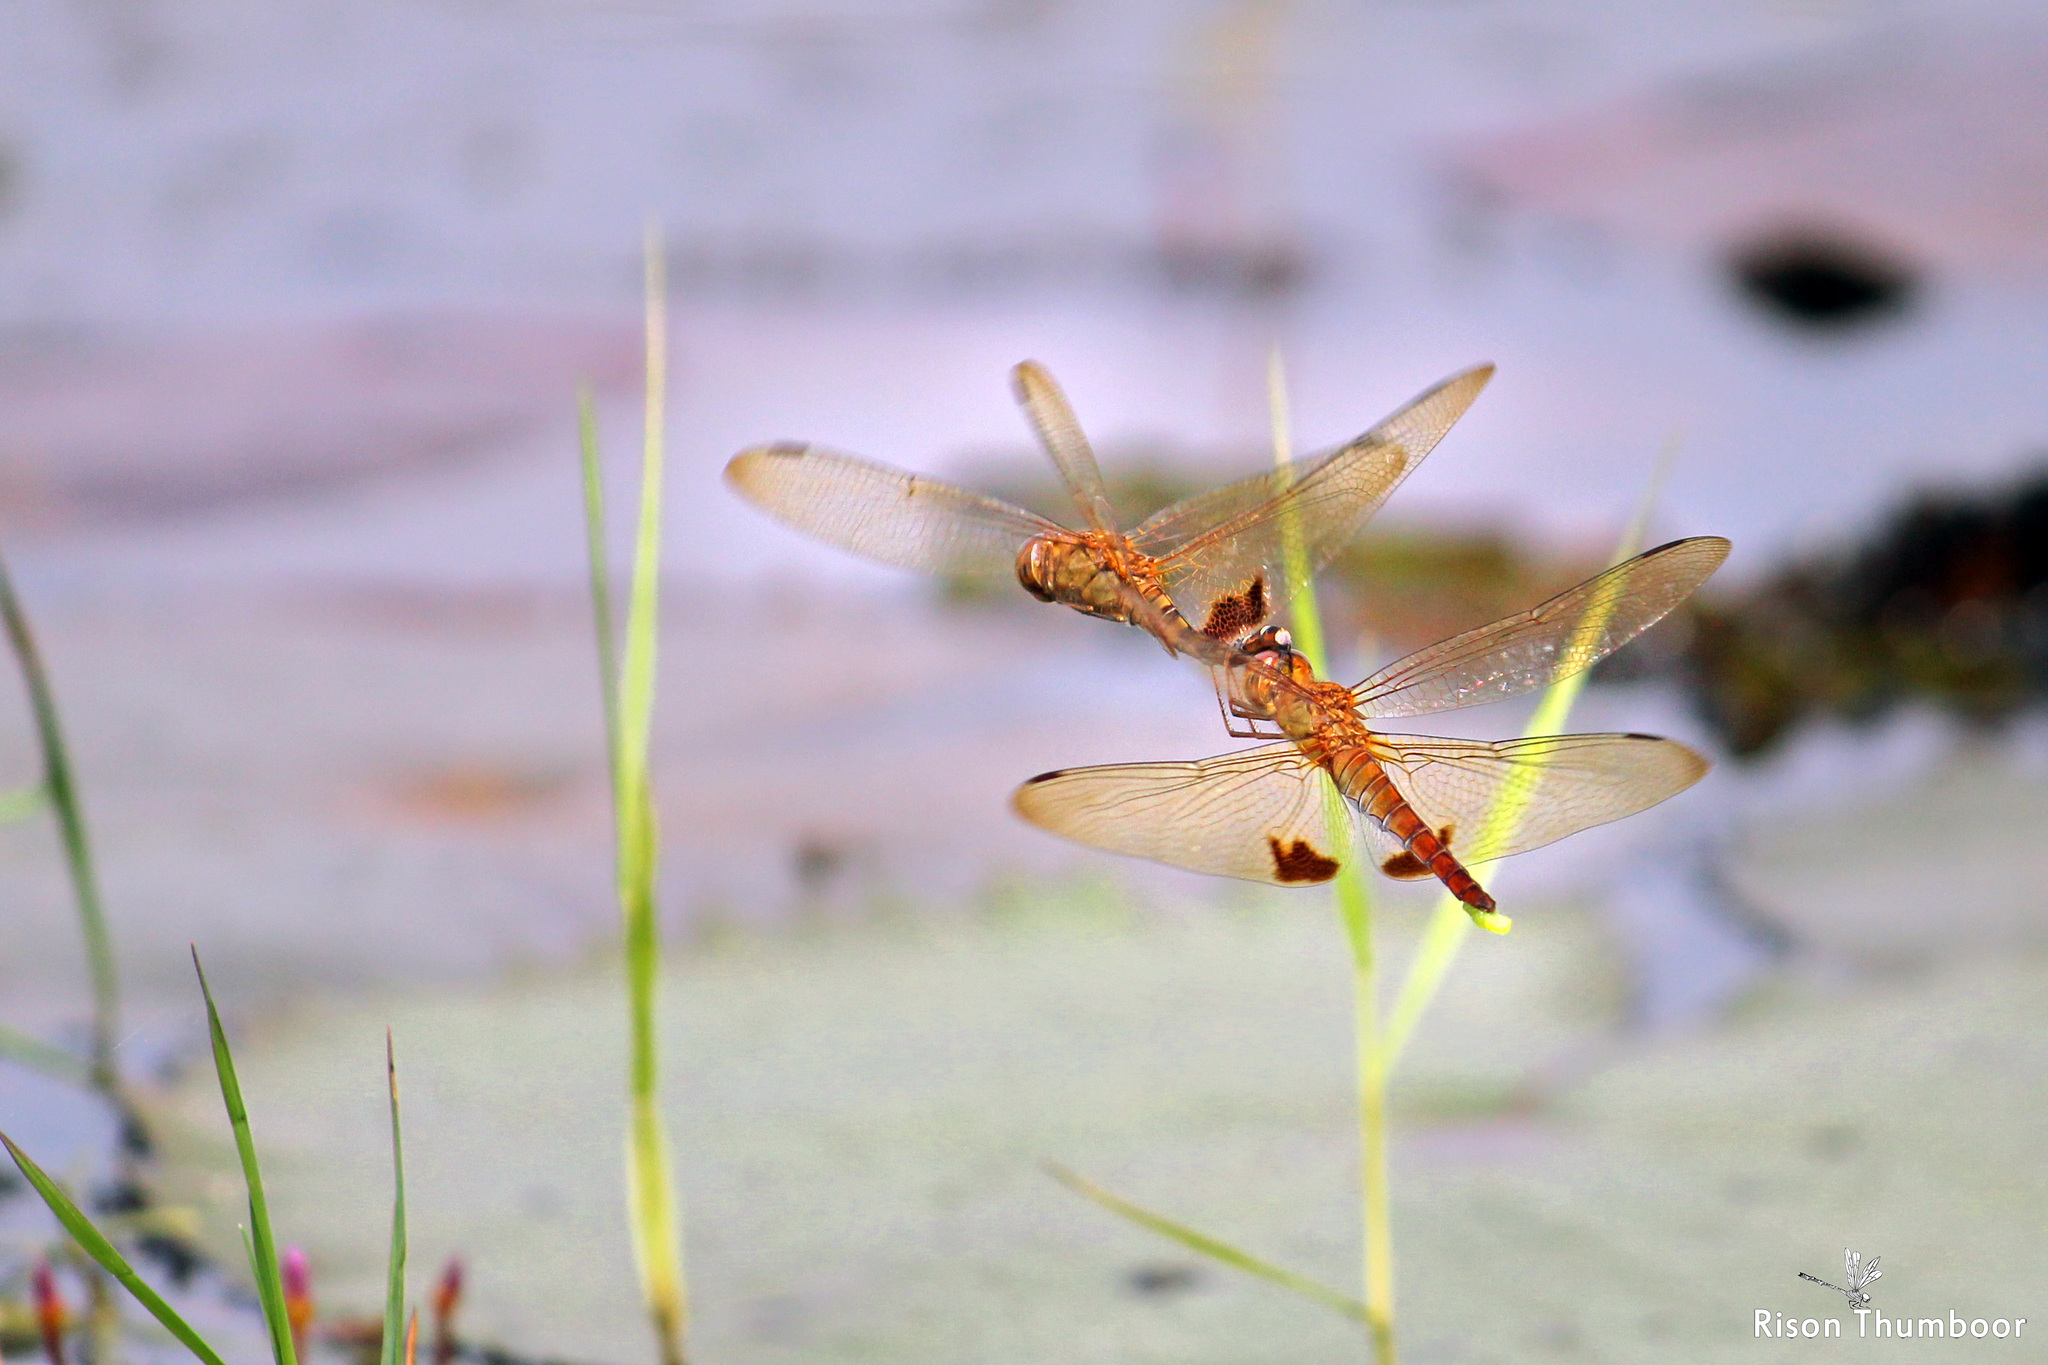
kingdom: Animalia
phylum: Arthropoda
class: Insecta
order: Odonata
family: Libellulidae
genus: Hydrobasileus
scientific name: Hydrobasileus croceus
